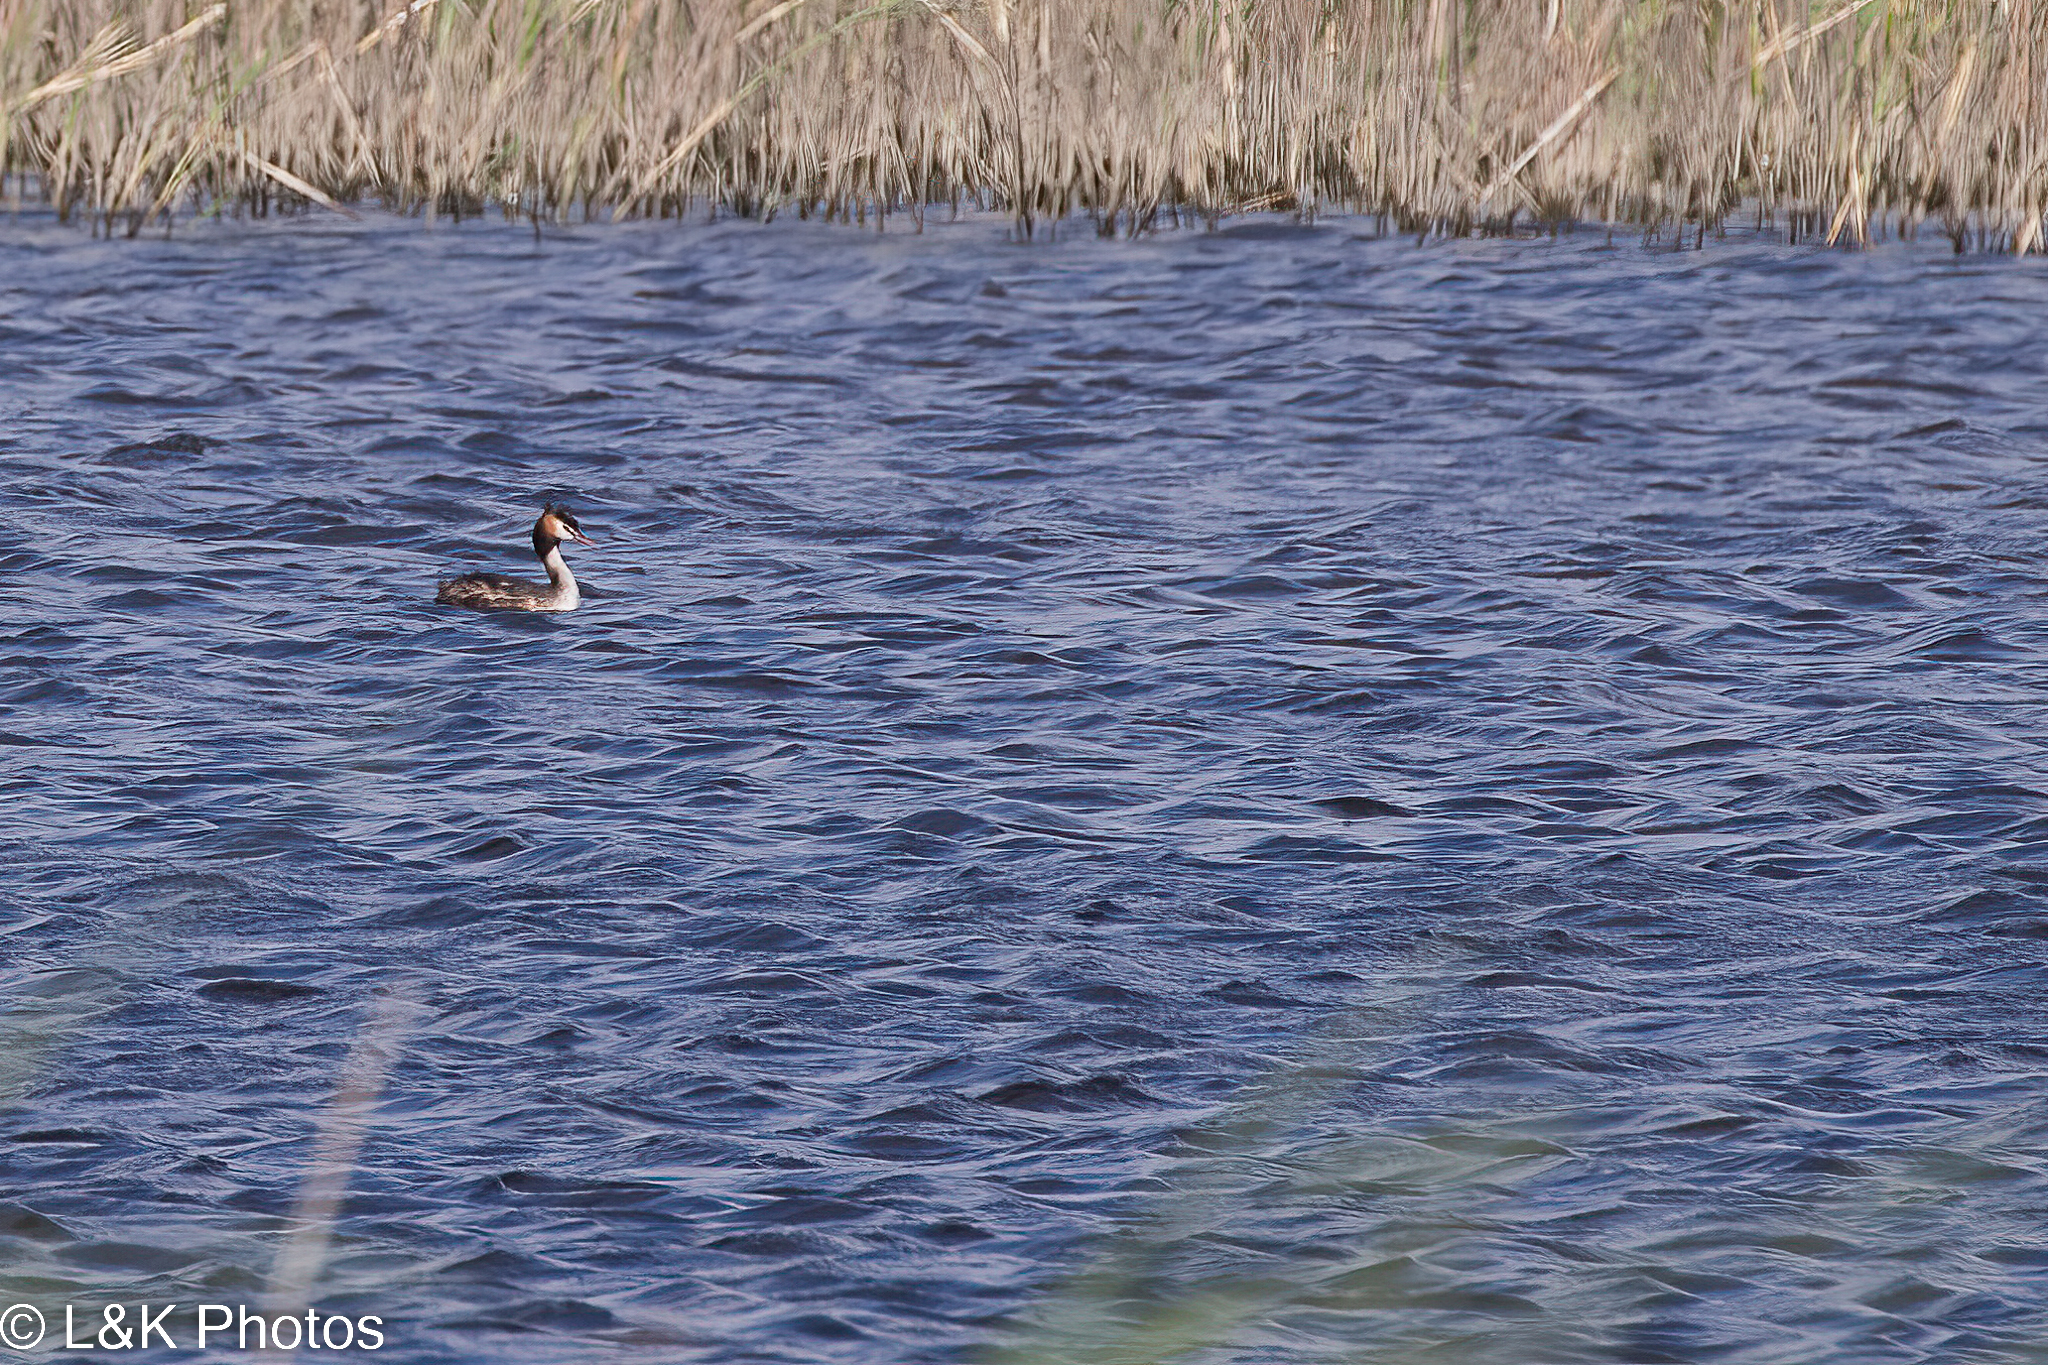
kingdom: Animalia
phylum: Chordata
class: Aves
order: Podicipediformes
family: Podicipedidae
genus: Podiceps
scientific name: Podiceps cristatus
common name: Great crested grebe
